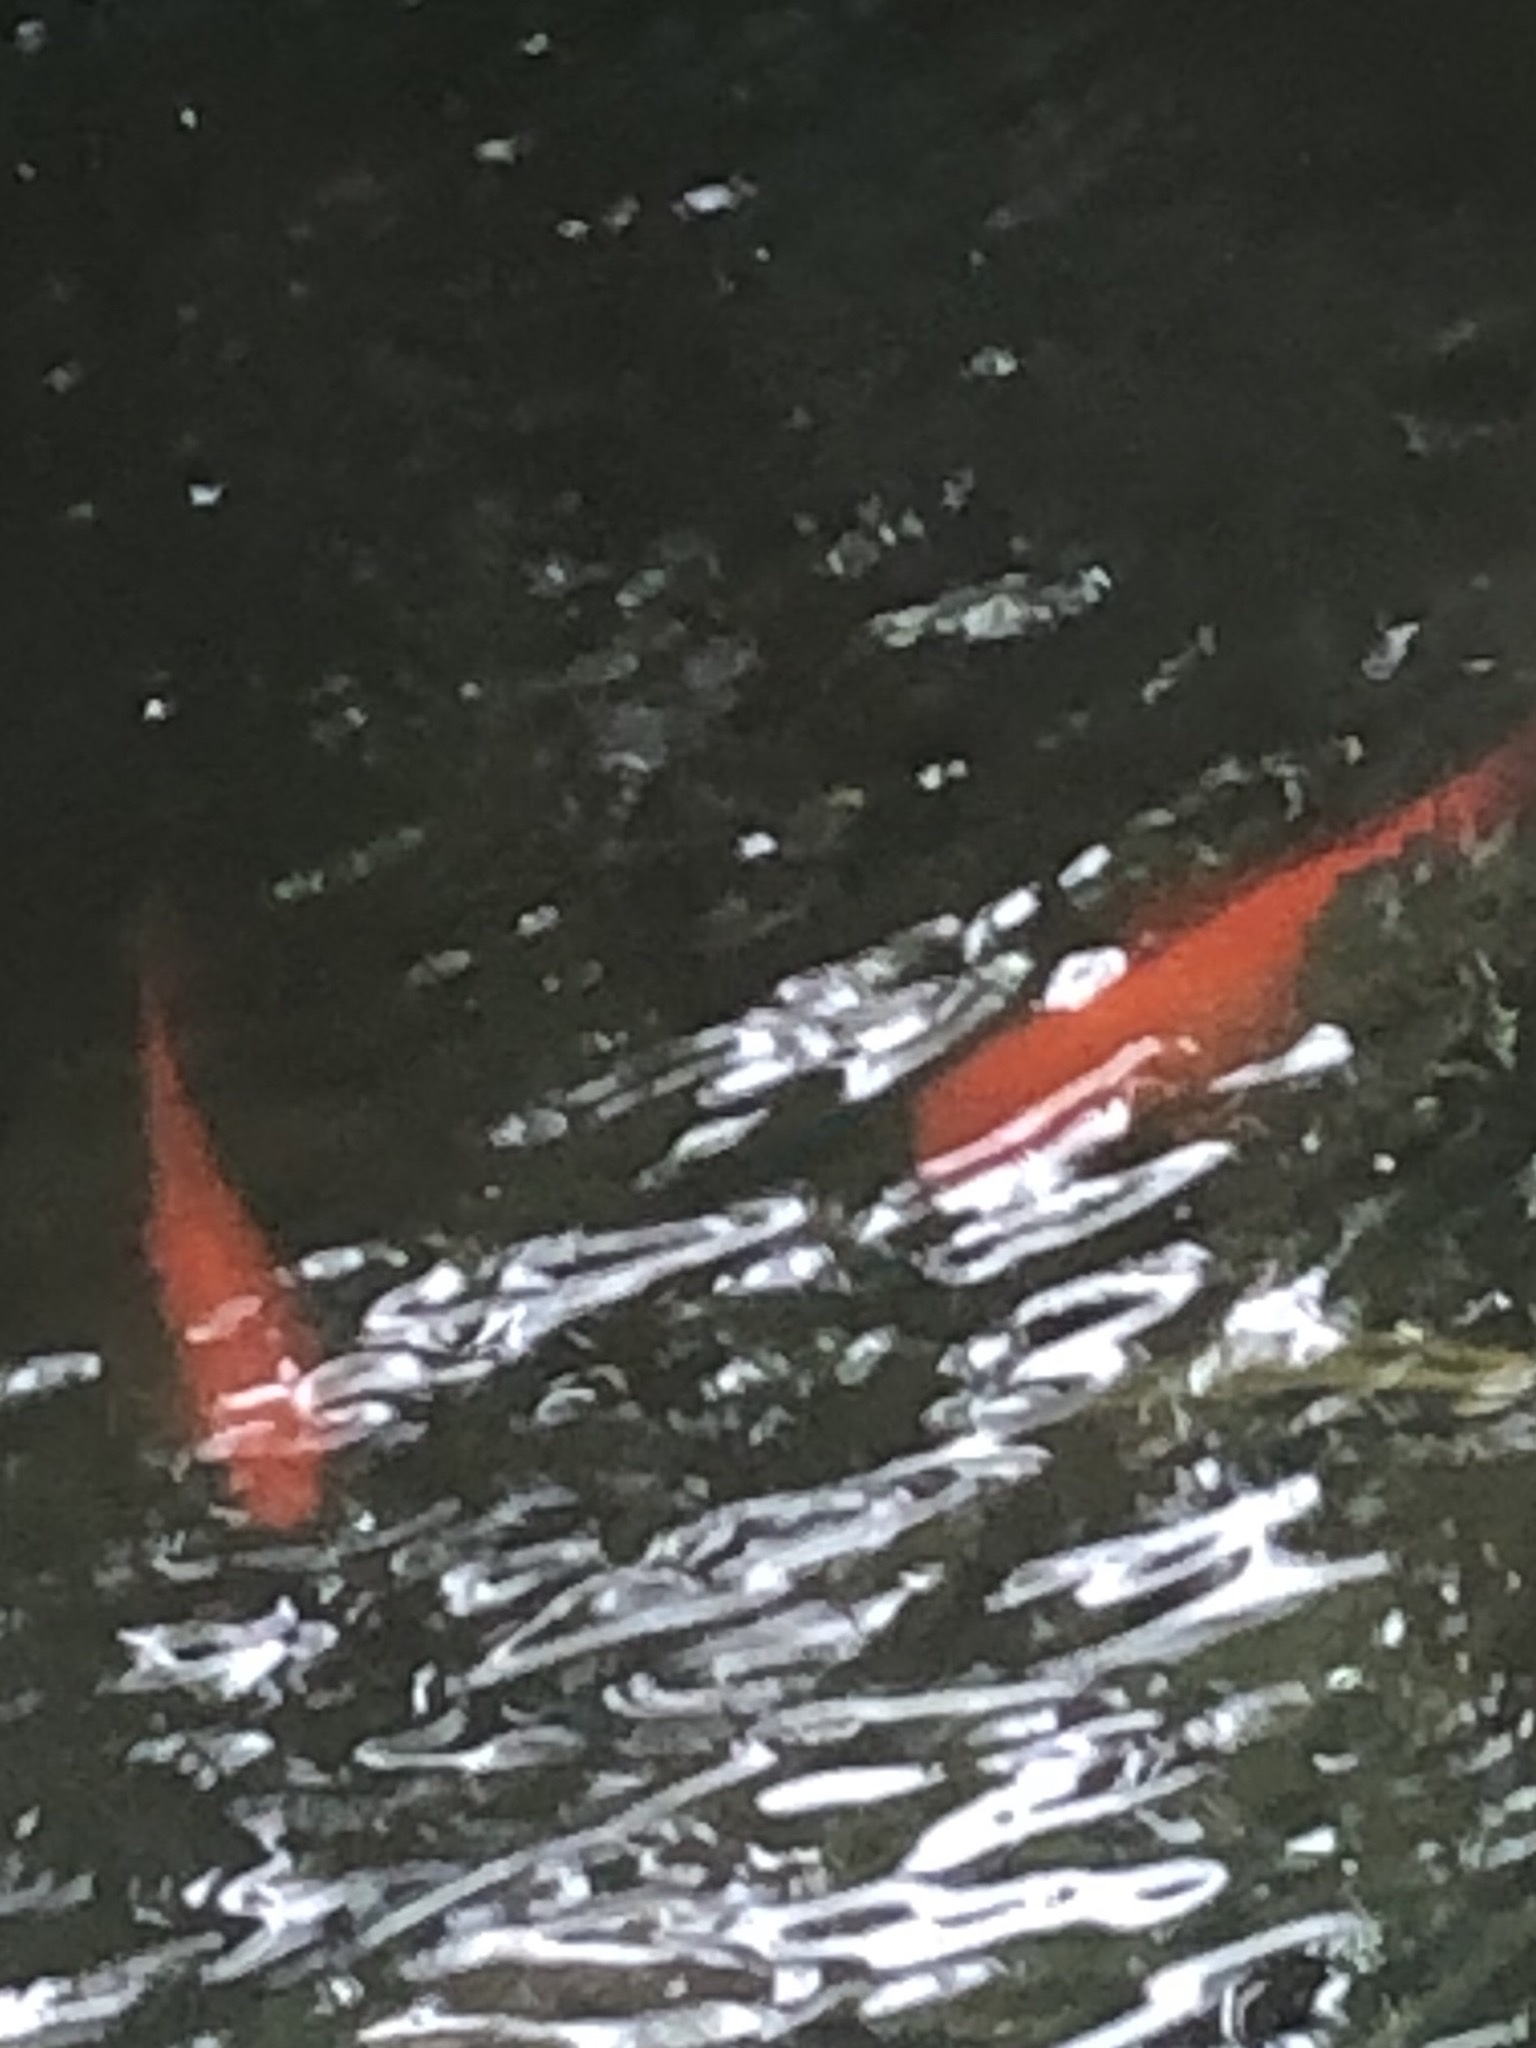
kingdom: Animalia
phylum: Chordata
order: Cypriniformes
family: Cyprinidae
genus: Carassius
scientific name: Carassius auratus
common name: Goldfish
